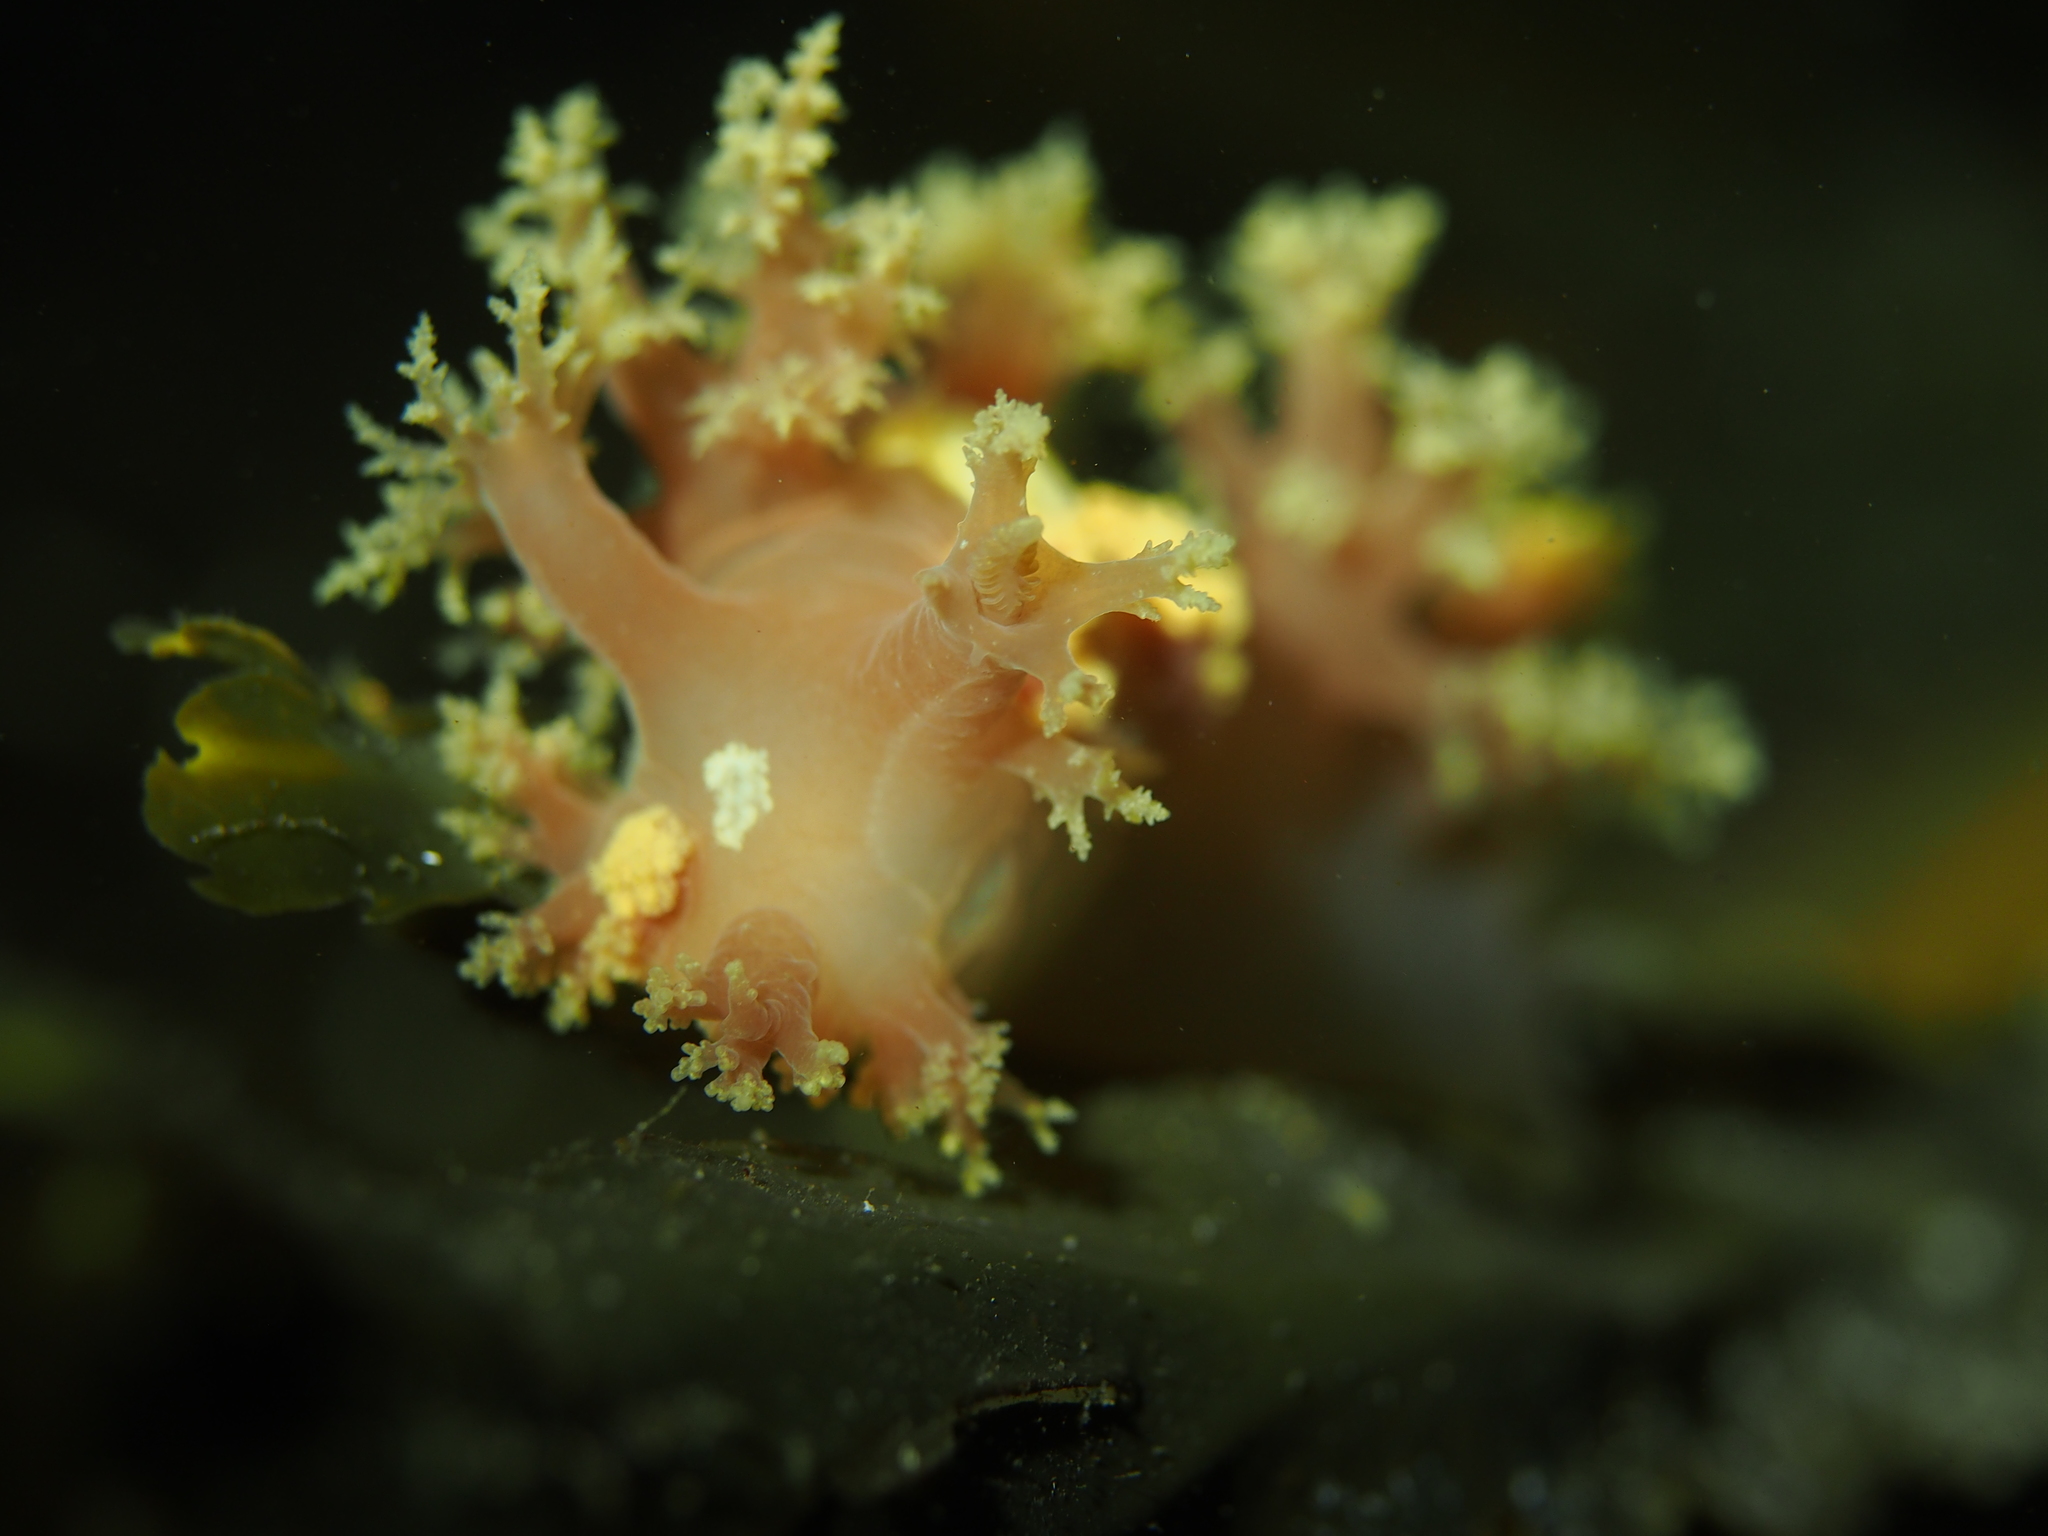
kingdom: Animalia
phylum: Mollusca
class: Gastropoda
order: Nudibranchia
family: Dendronotidae
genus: Dendronotus
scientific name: Dendronotus lacteus
